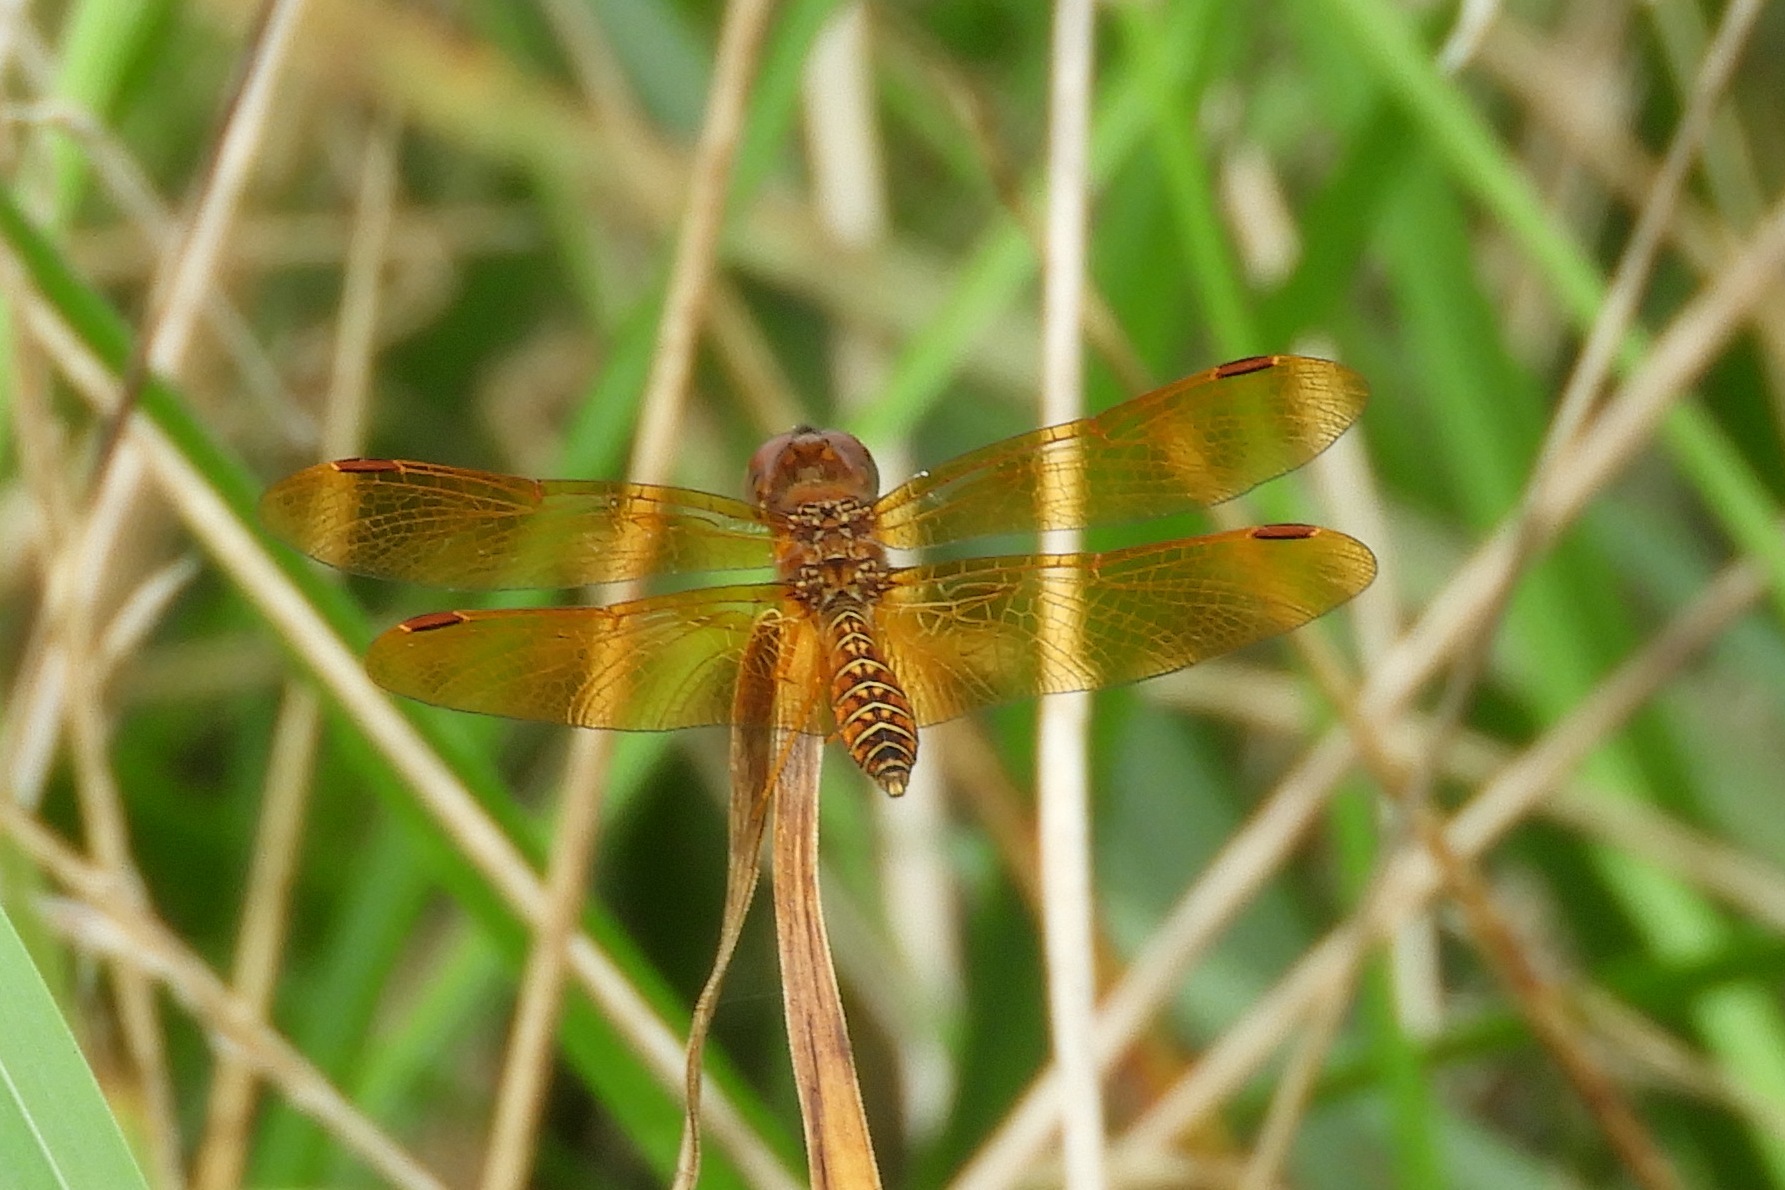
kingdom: Animalia
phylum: Arthropoda
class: Insecta
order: Odonata
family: Libellulidae
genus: Perithemis
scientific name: Perithemis tenera
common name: Eastern amberwing
